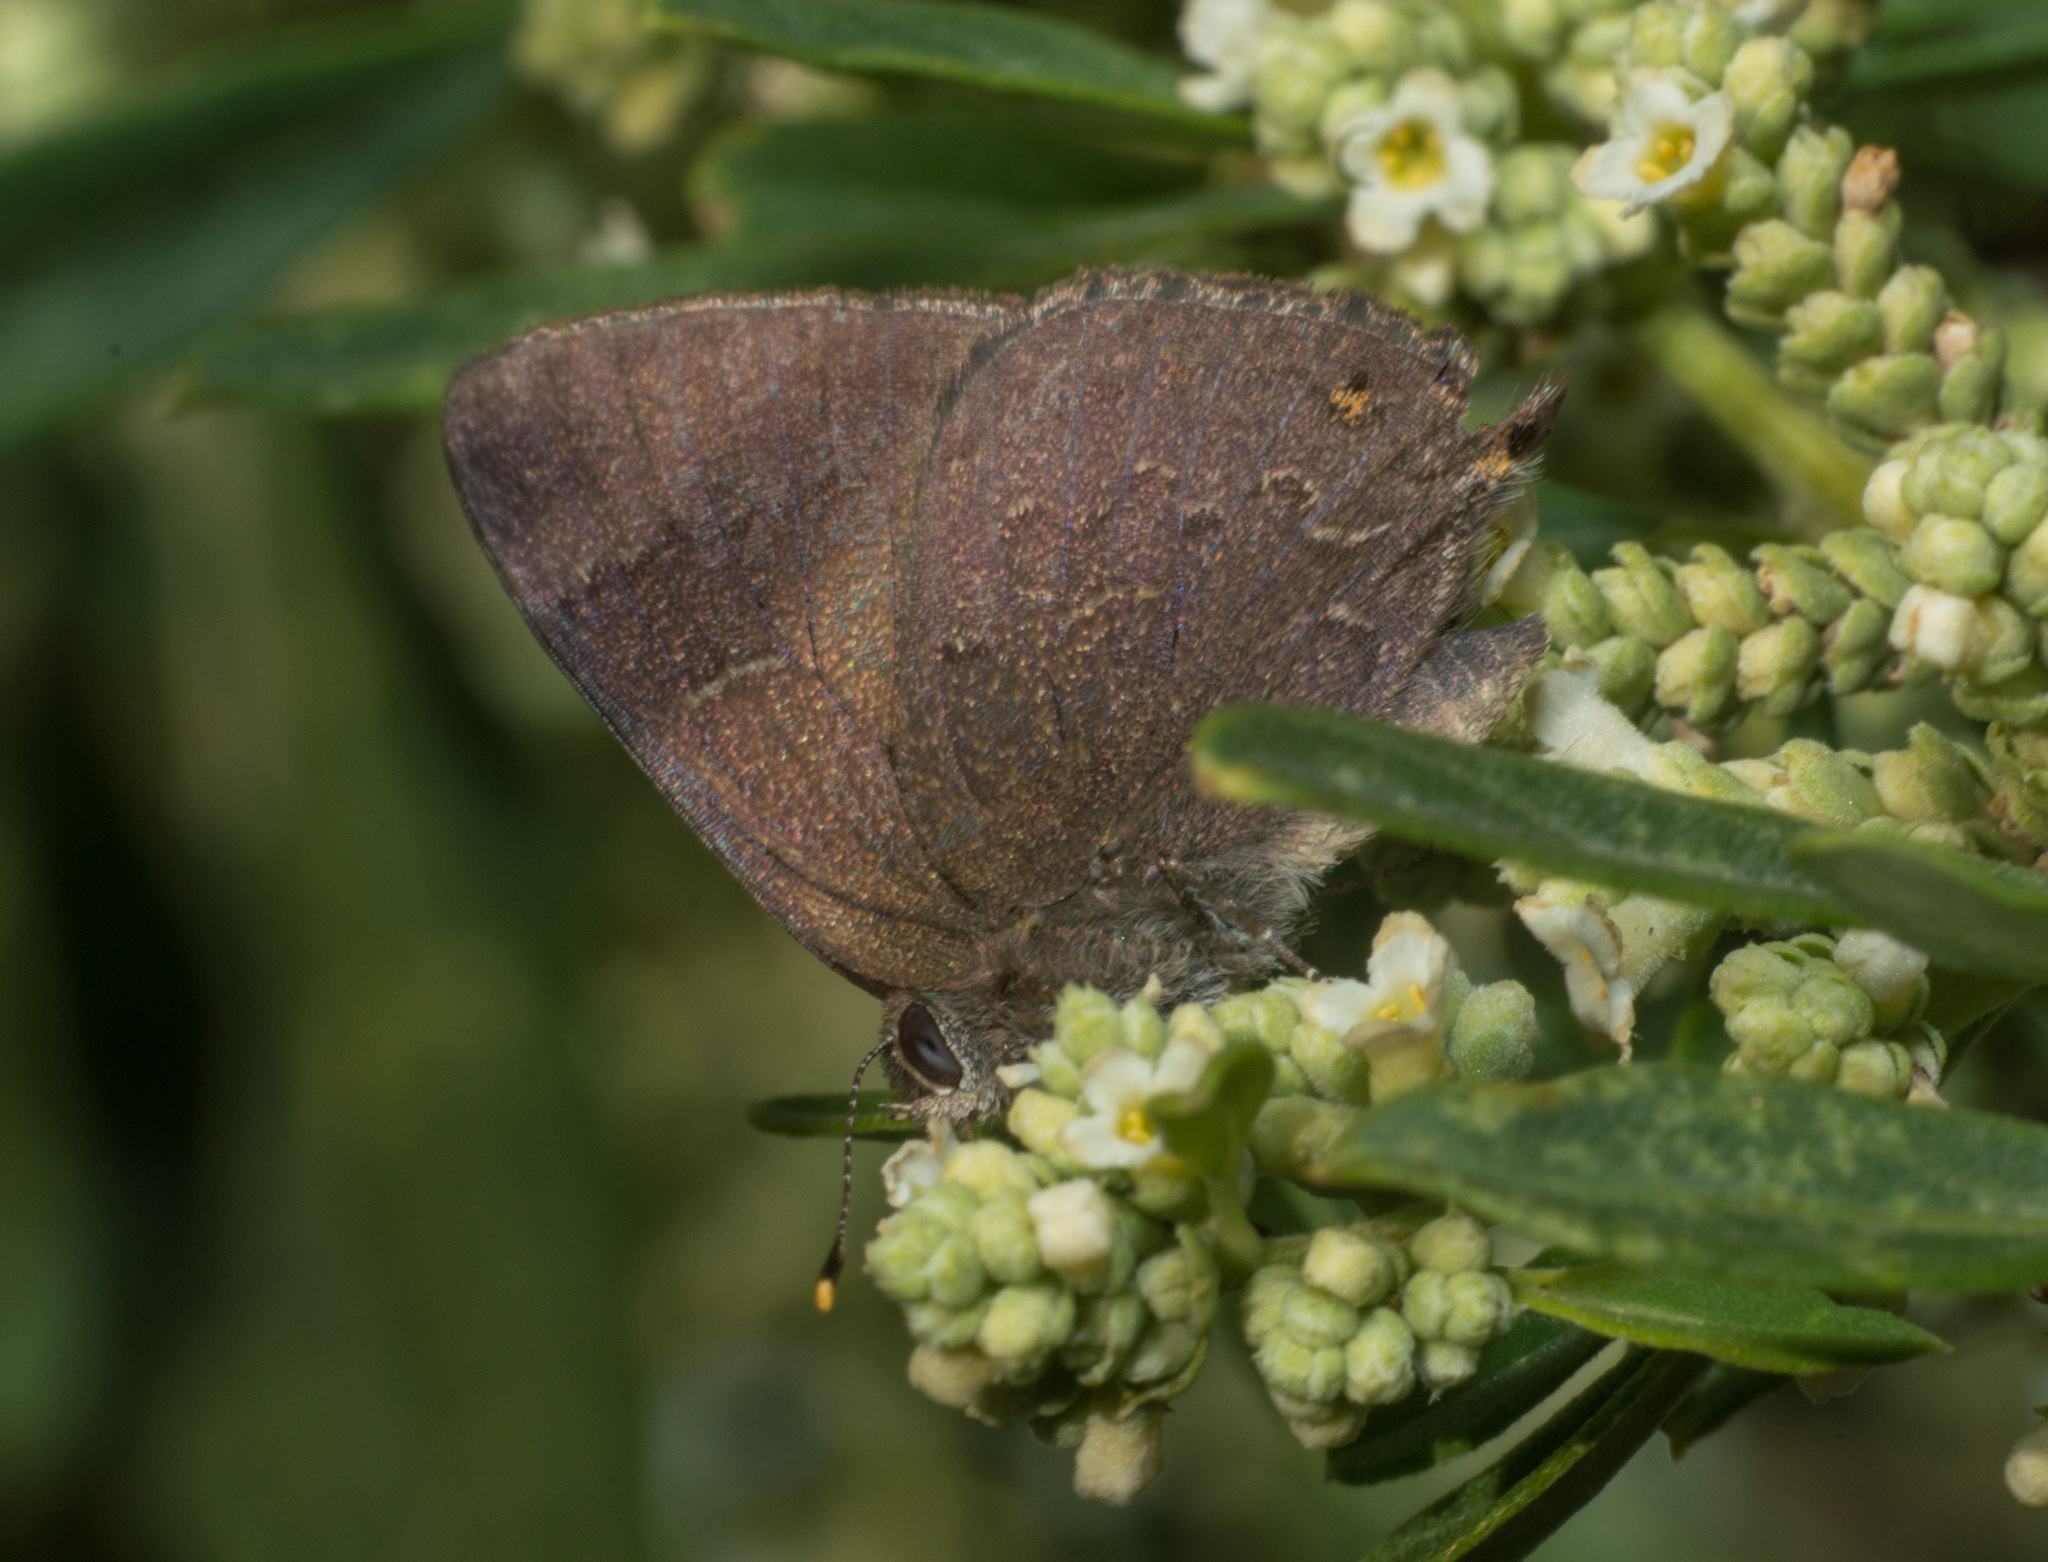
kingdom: Animalia
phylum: Arthropoda
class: Insecta
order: Lepidoptera
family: Lycaenidae
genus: Ocaria
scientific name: Ocaria
